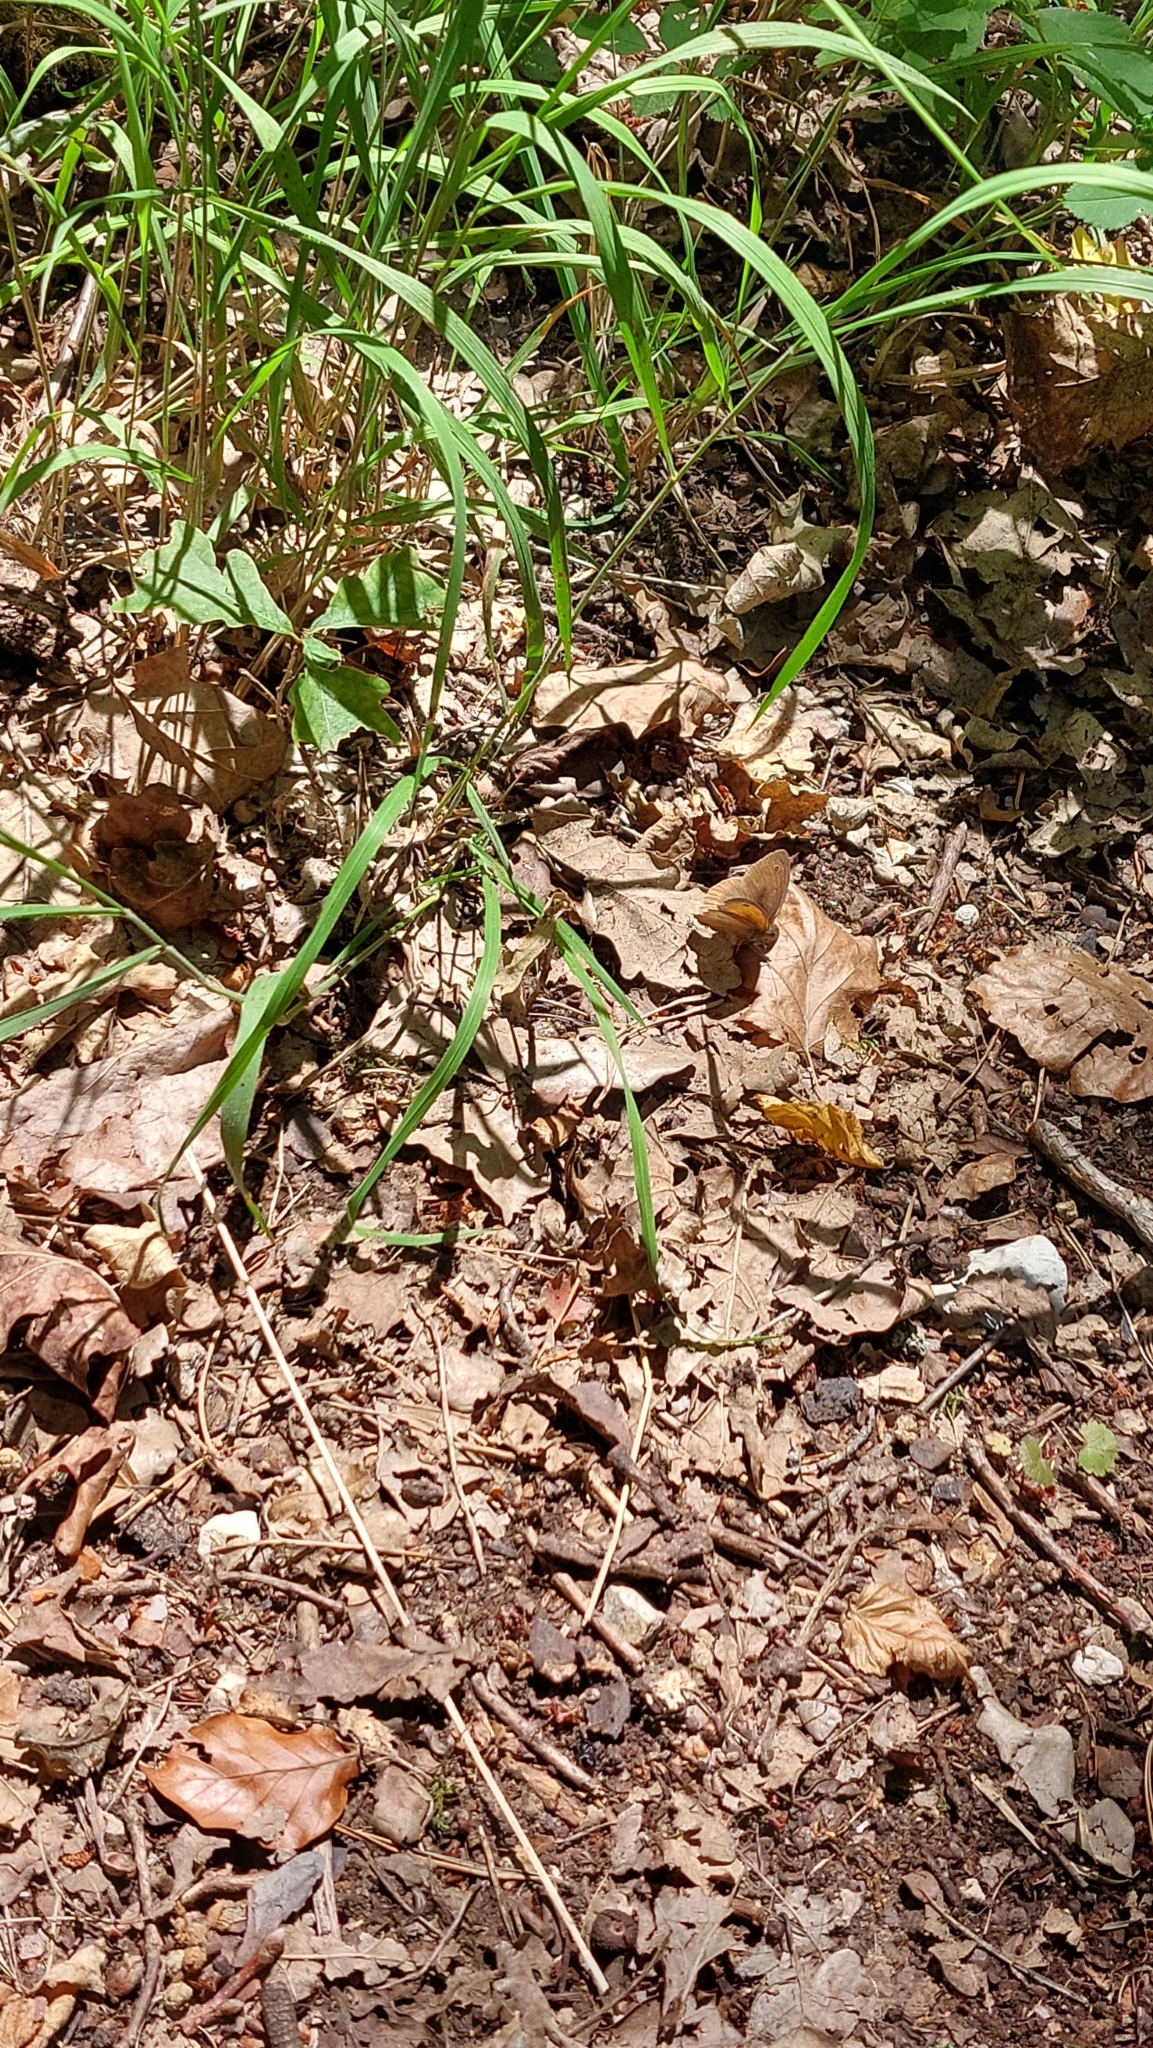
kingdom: Animalia
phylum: Arthropoda
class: Insecta
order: Lepidoptera
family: Nymphalidae
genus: Maniola
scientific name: Maniola jurtina
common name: Meadow brown
